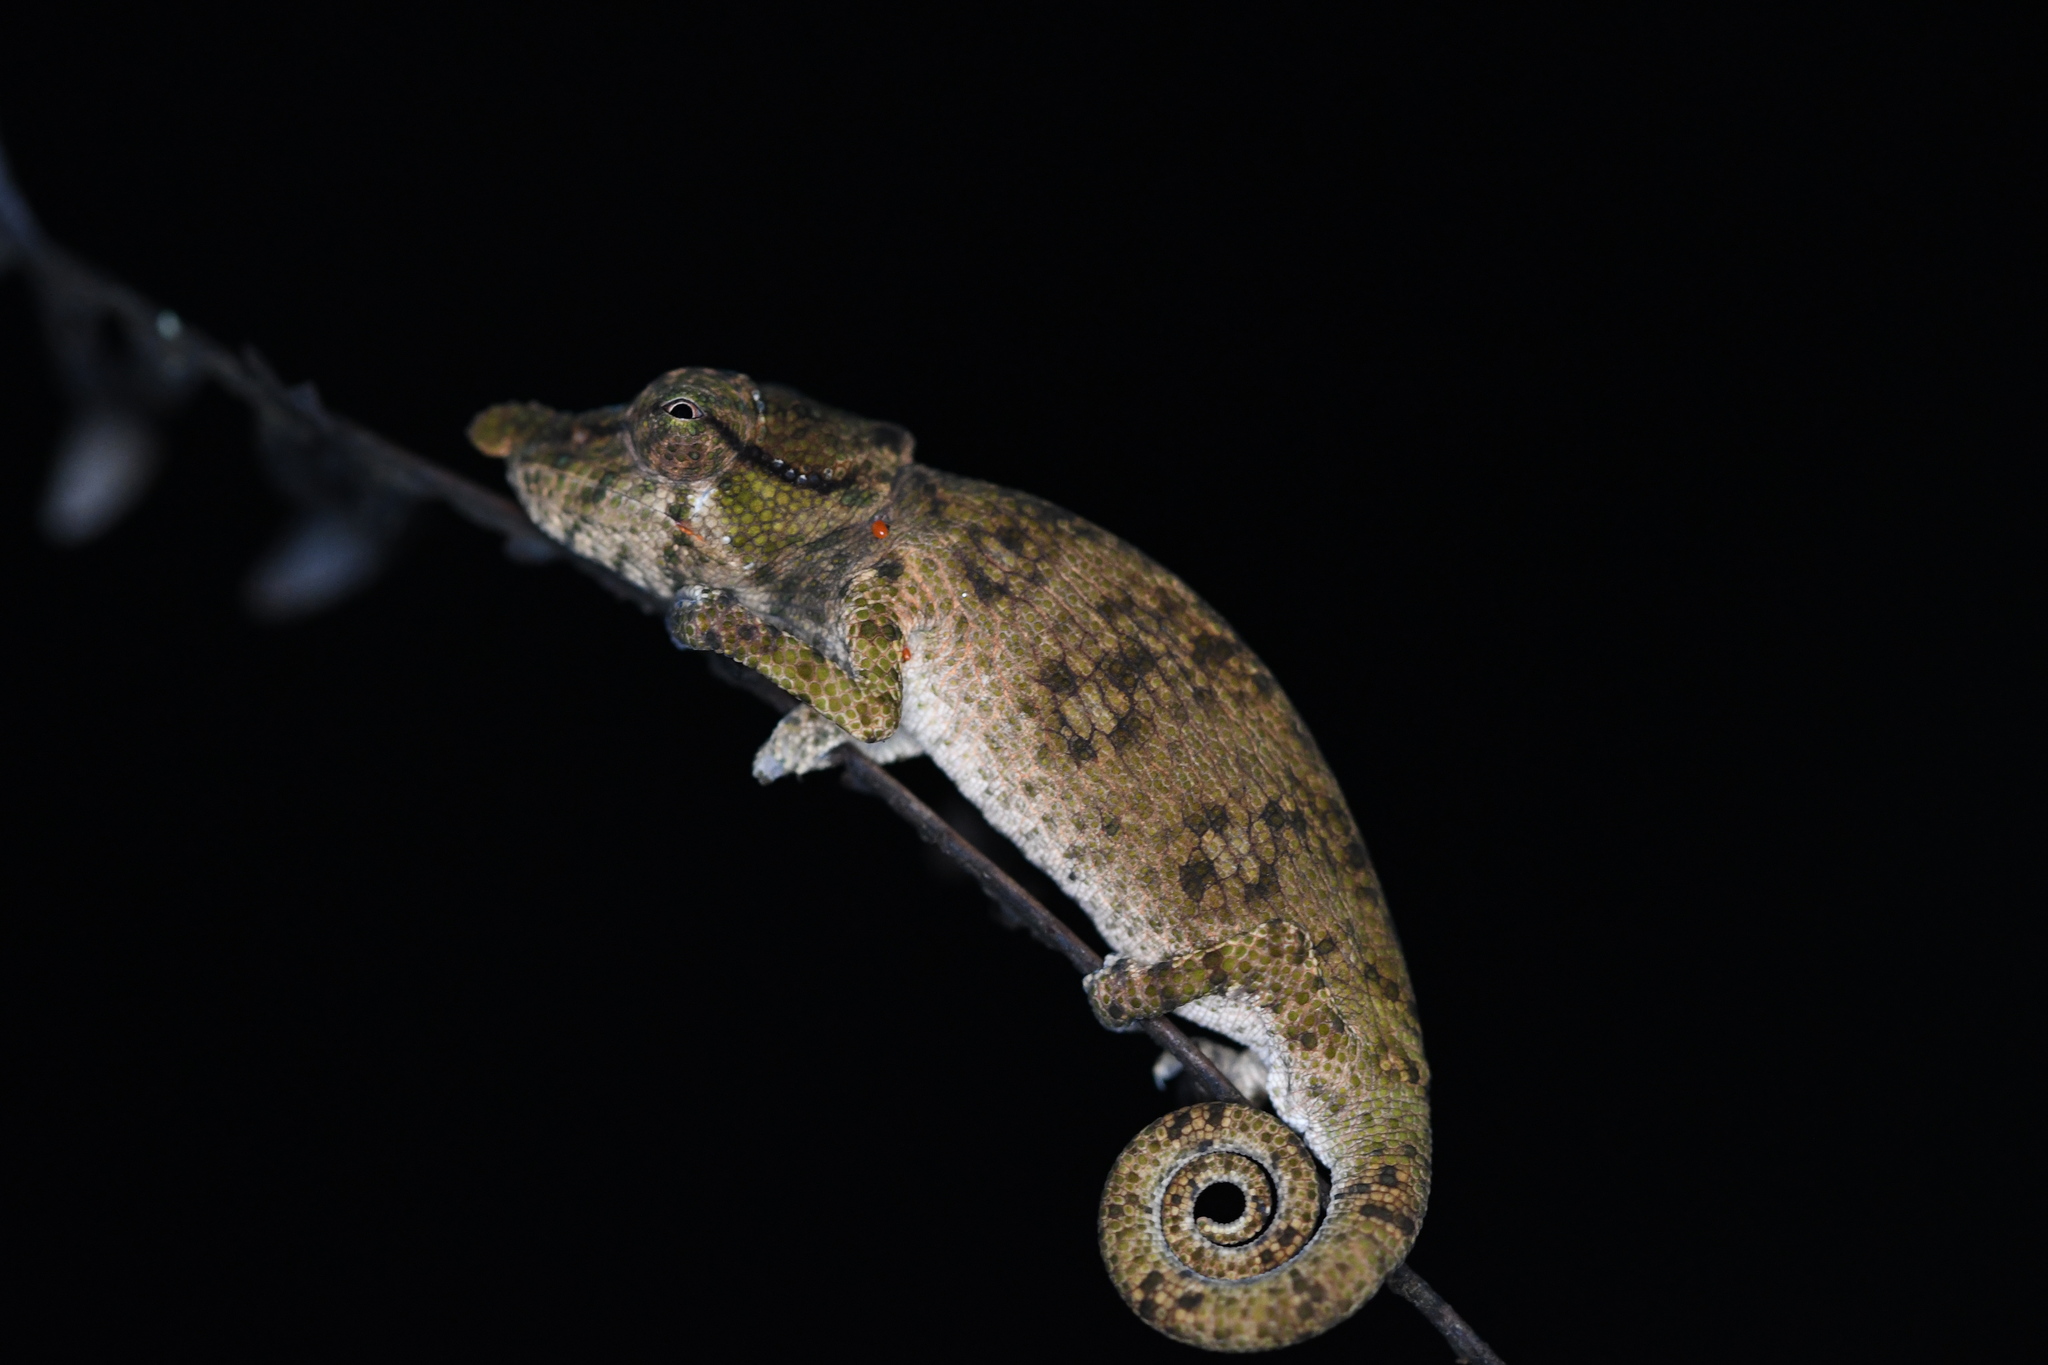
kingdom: Animalia
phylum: Chordata
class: Squamata
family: Chamaeleonidae
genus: Calumma
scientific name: Calumma tjiasmantoi
